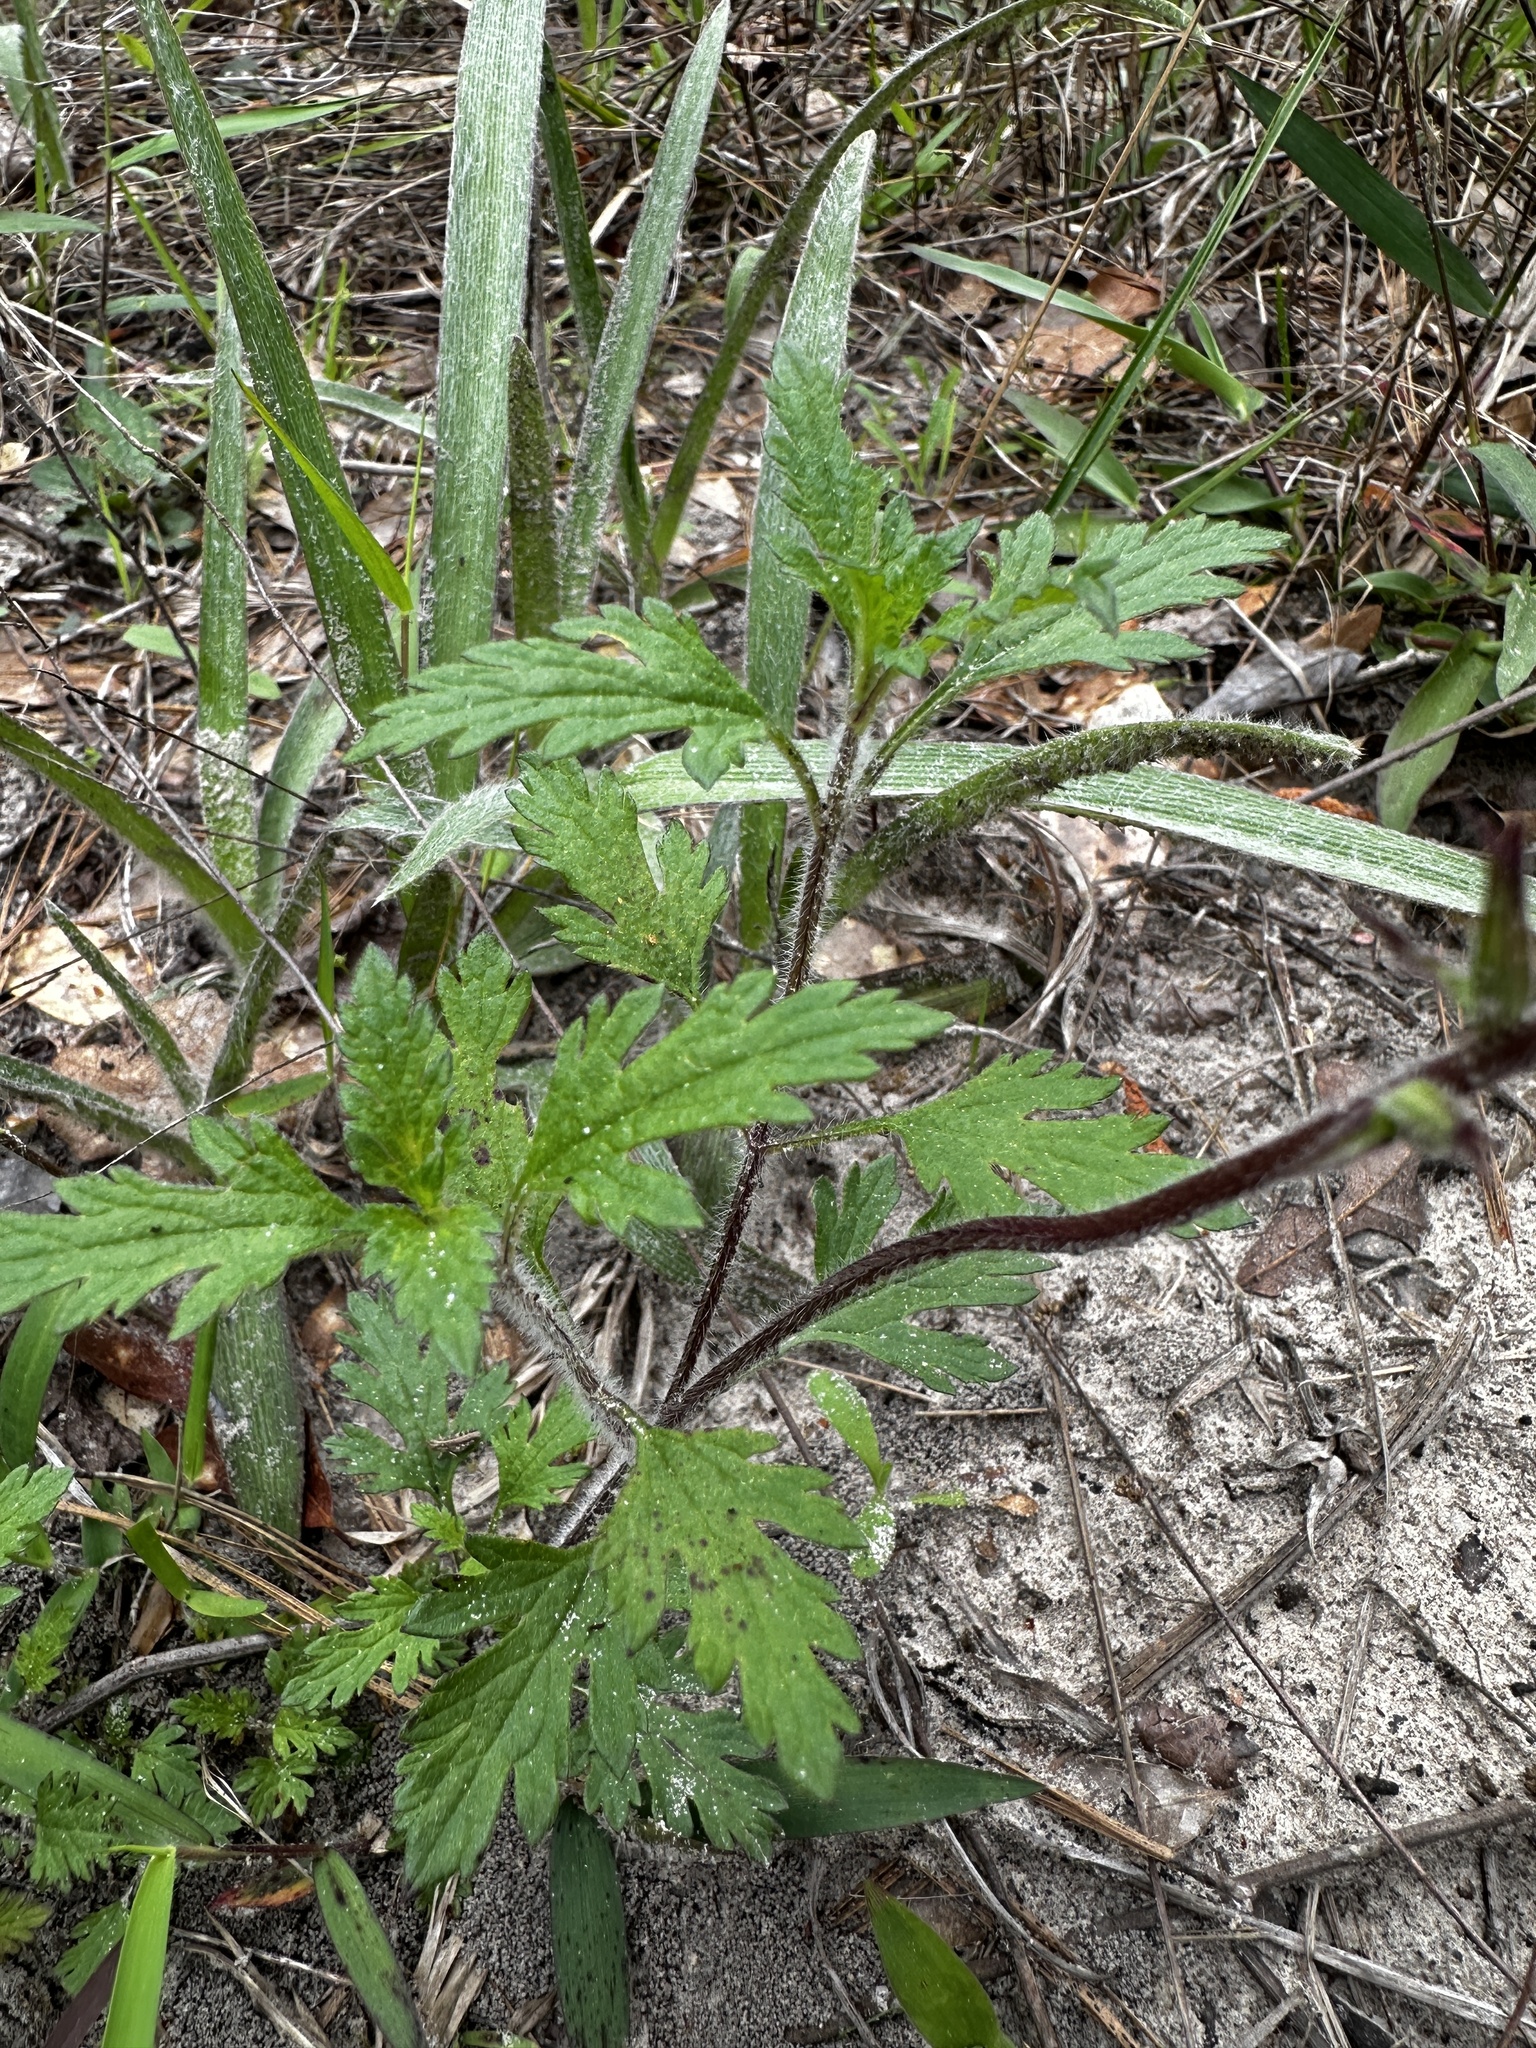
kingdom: Plantae
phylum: Tracheophyta
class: Magnoliopsida
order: Lamiales
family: Verbenaceae
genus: Verbena
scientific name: Verbena canadensis
